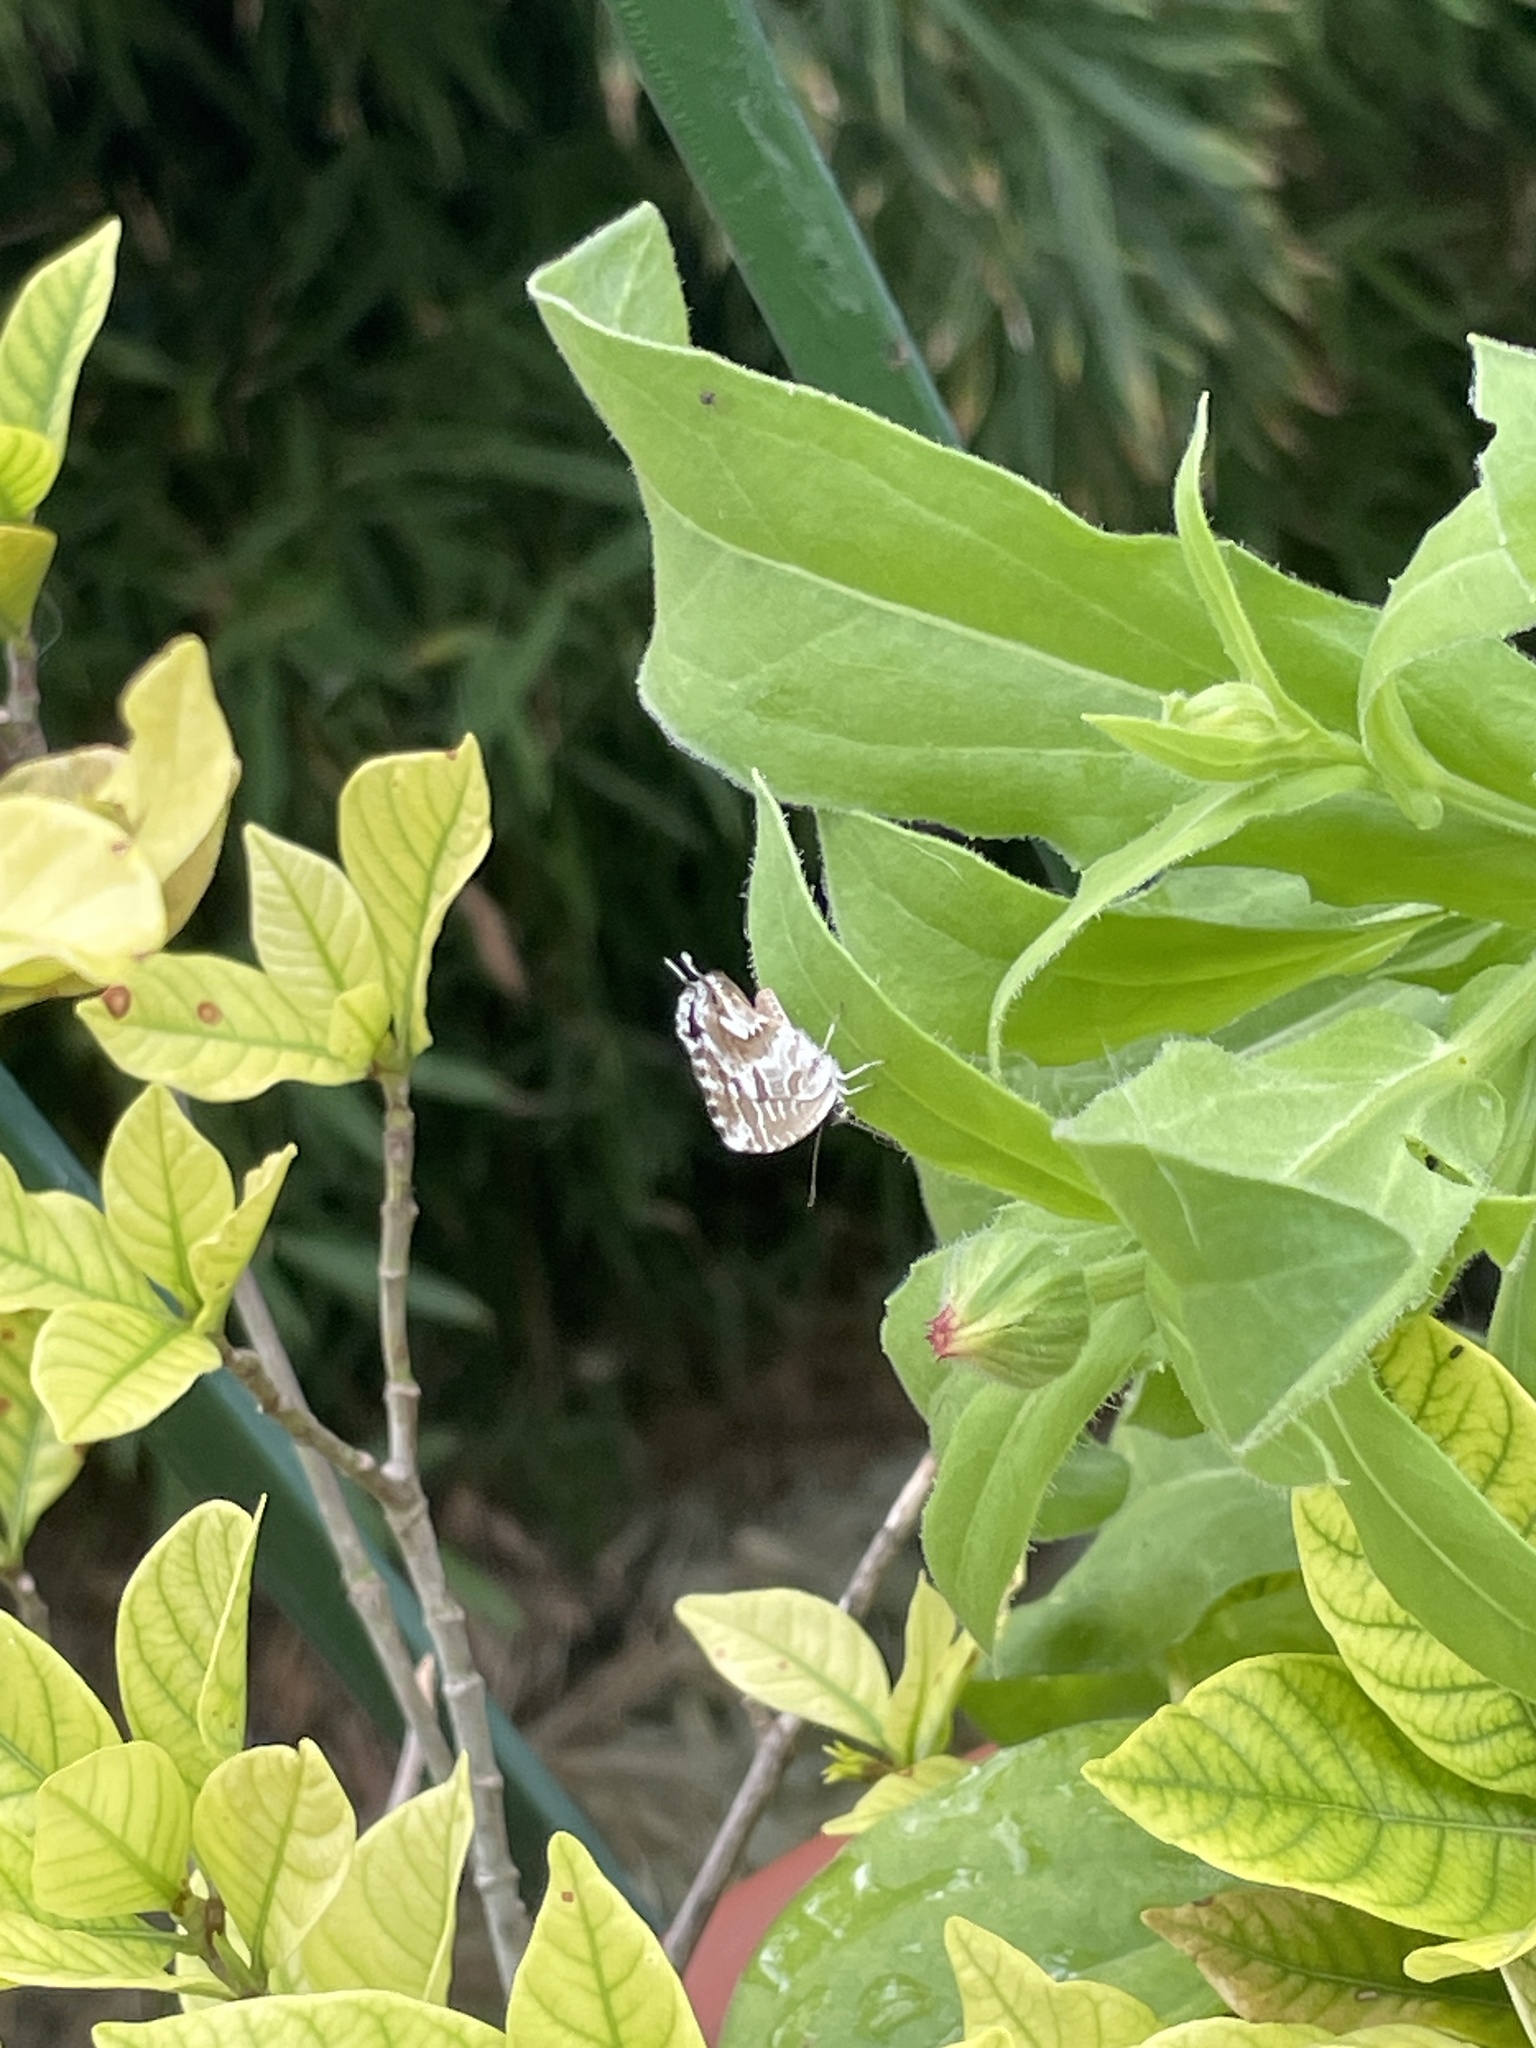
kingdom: Animalia
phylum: Arthropoda
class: Insecta
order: Lepidoptera
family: Lycaenidae
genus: Cacyreus
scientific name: Cacyreus marshalli
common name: Geranium bronze
